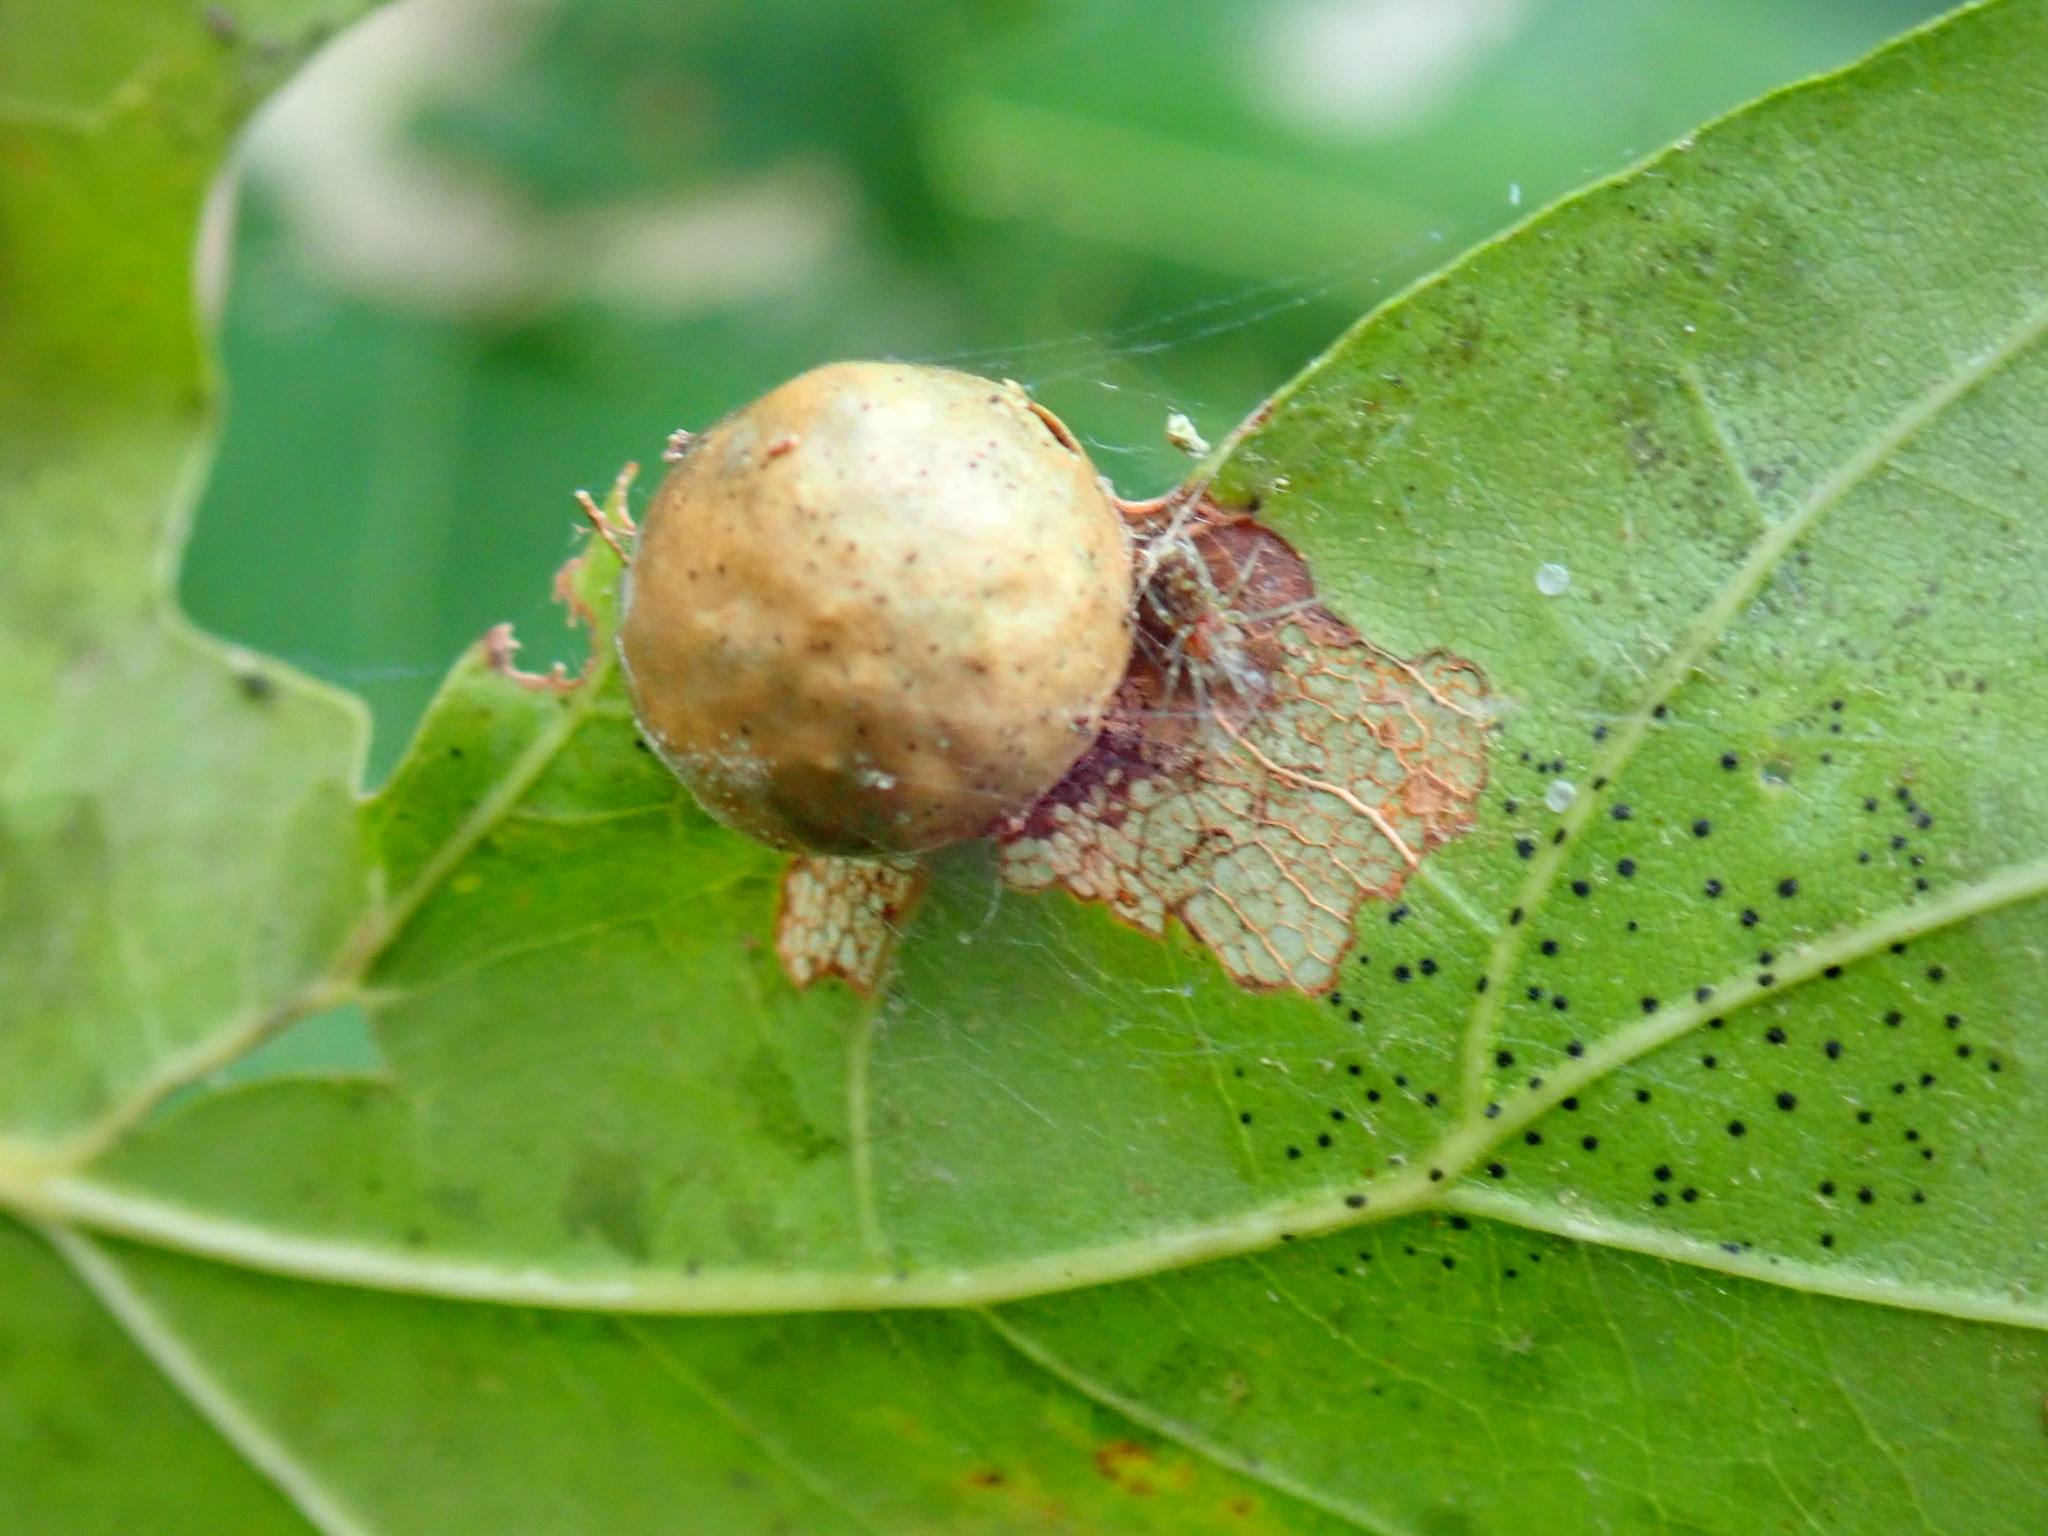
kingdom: Animalia
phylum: Arthropoda
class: Insecta
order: Hymenoptera
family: Cynipidae
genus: Amphibolips
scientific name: Amphibolips
